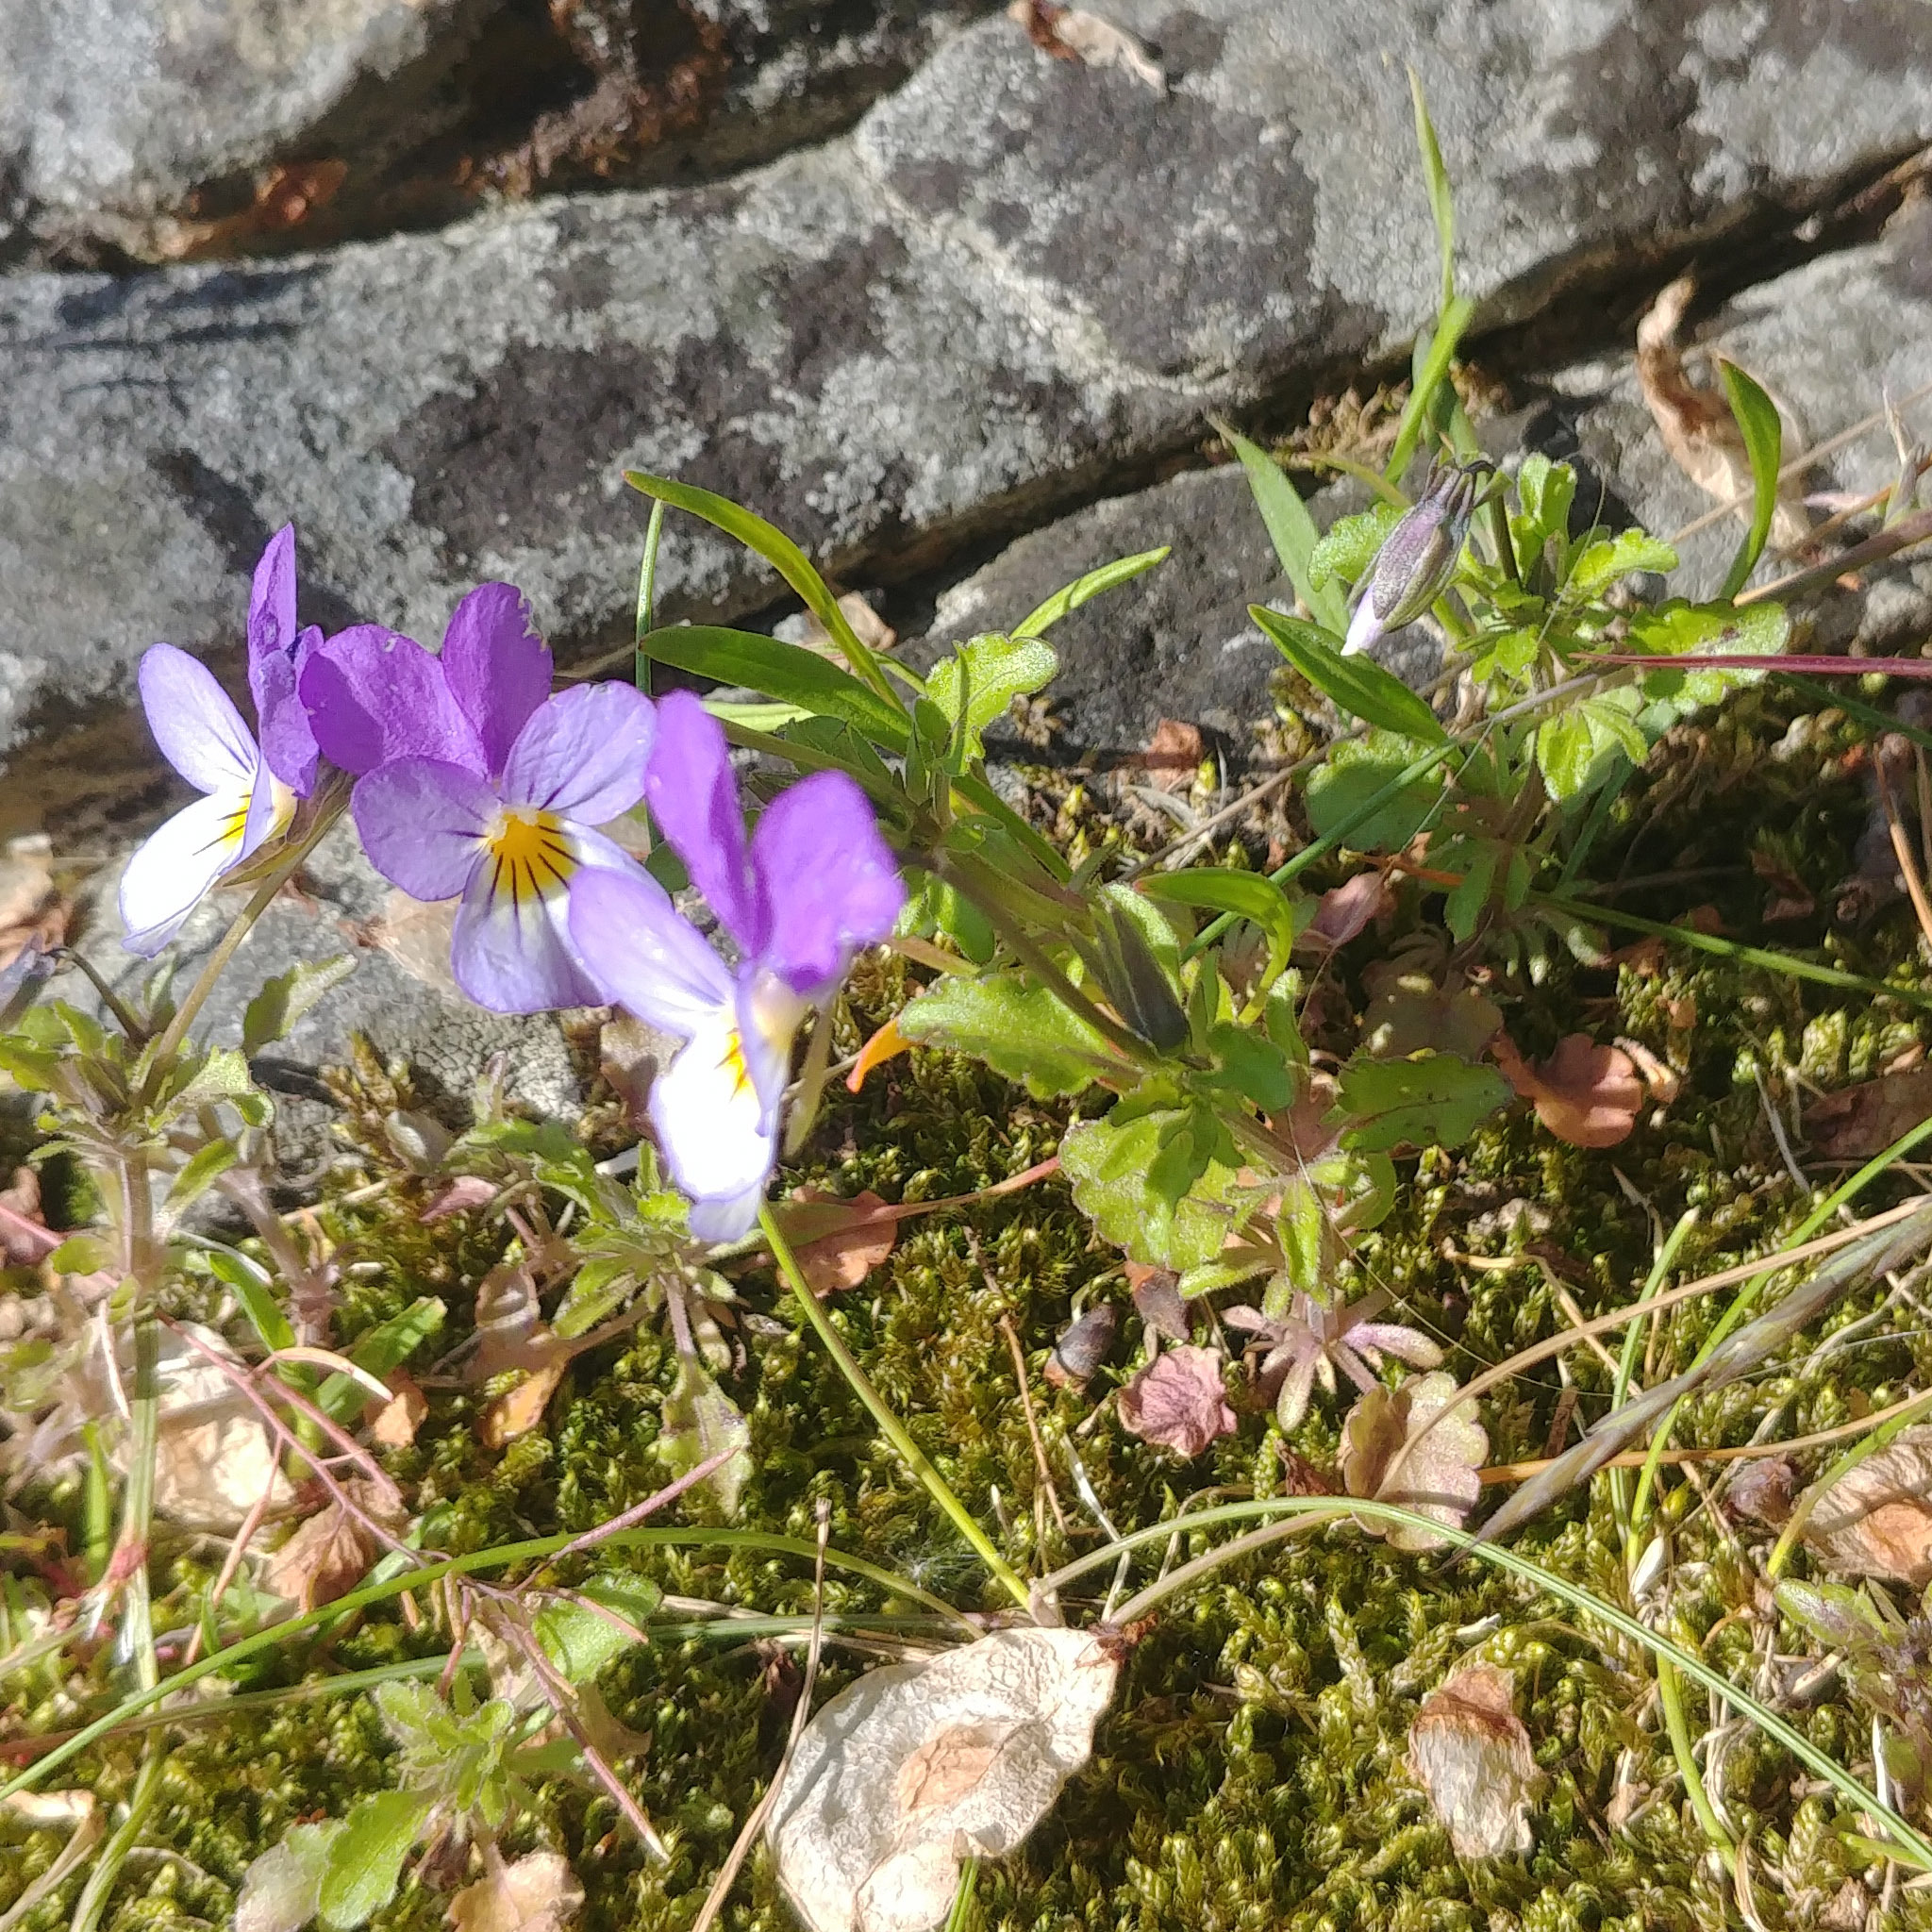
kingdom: Plantae
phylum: Tracheophyta
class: Magnoliopsida
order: Malpighiales
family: Violaceae
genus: Viola
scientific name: Viola tricolor
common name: Pansy
